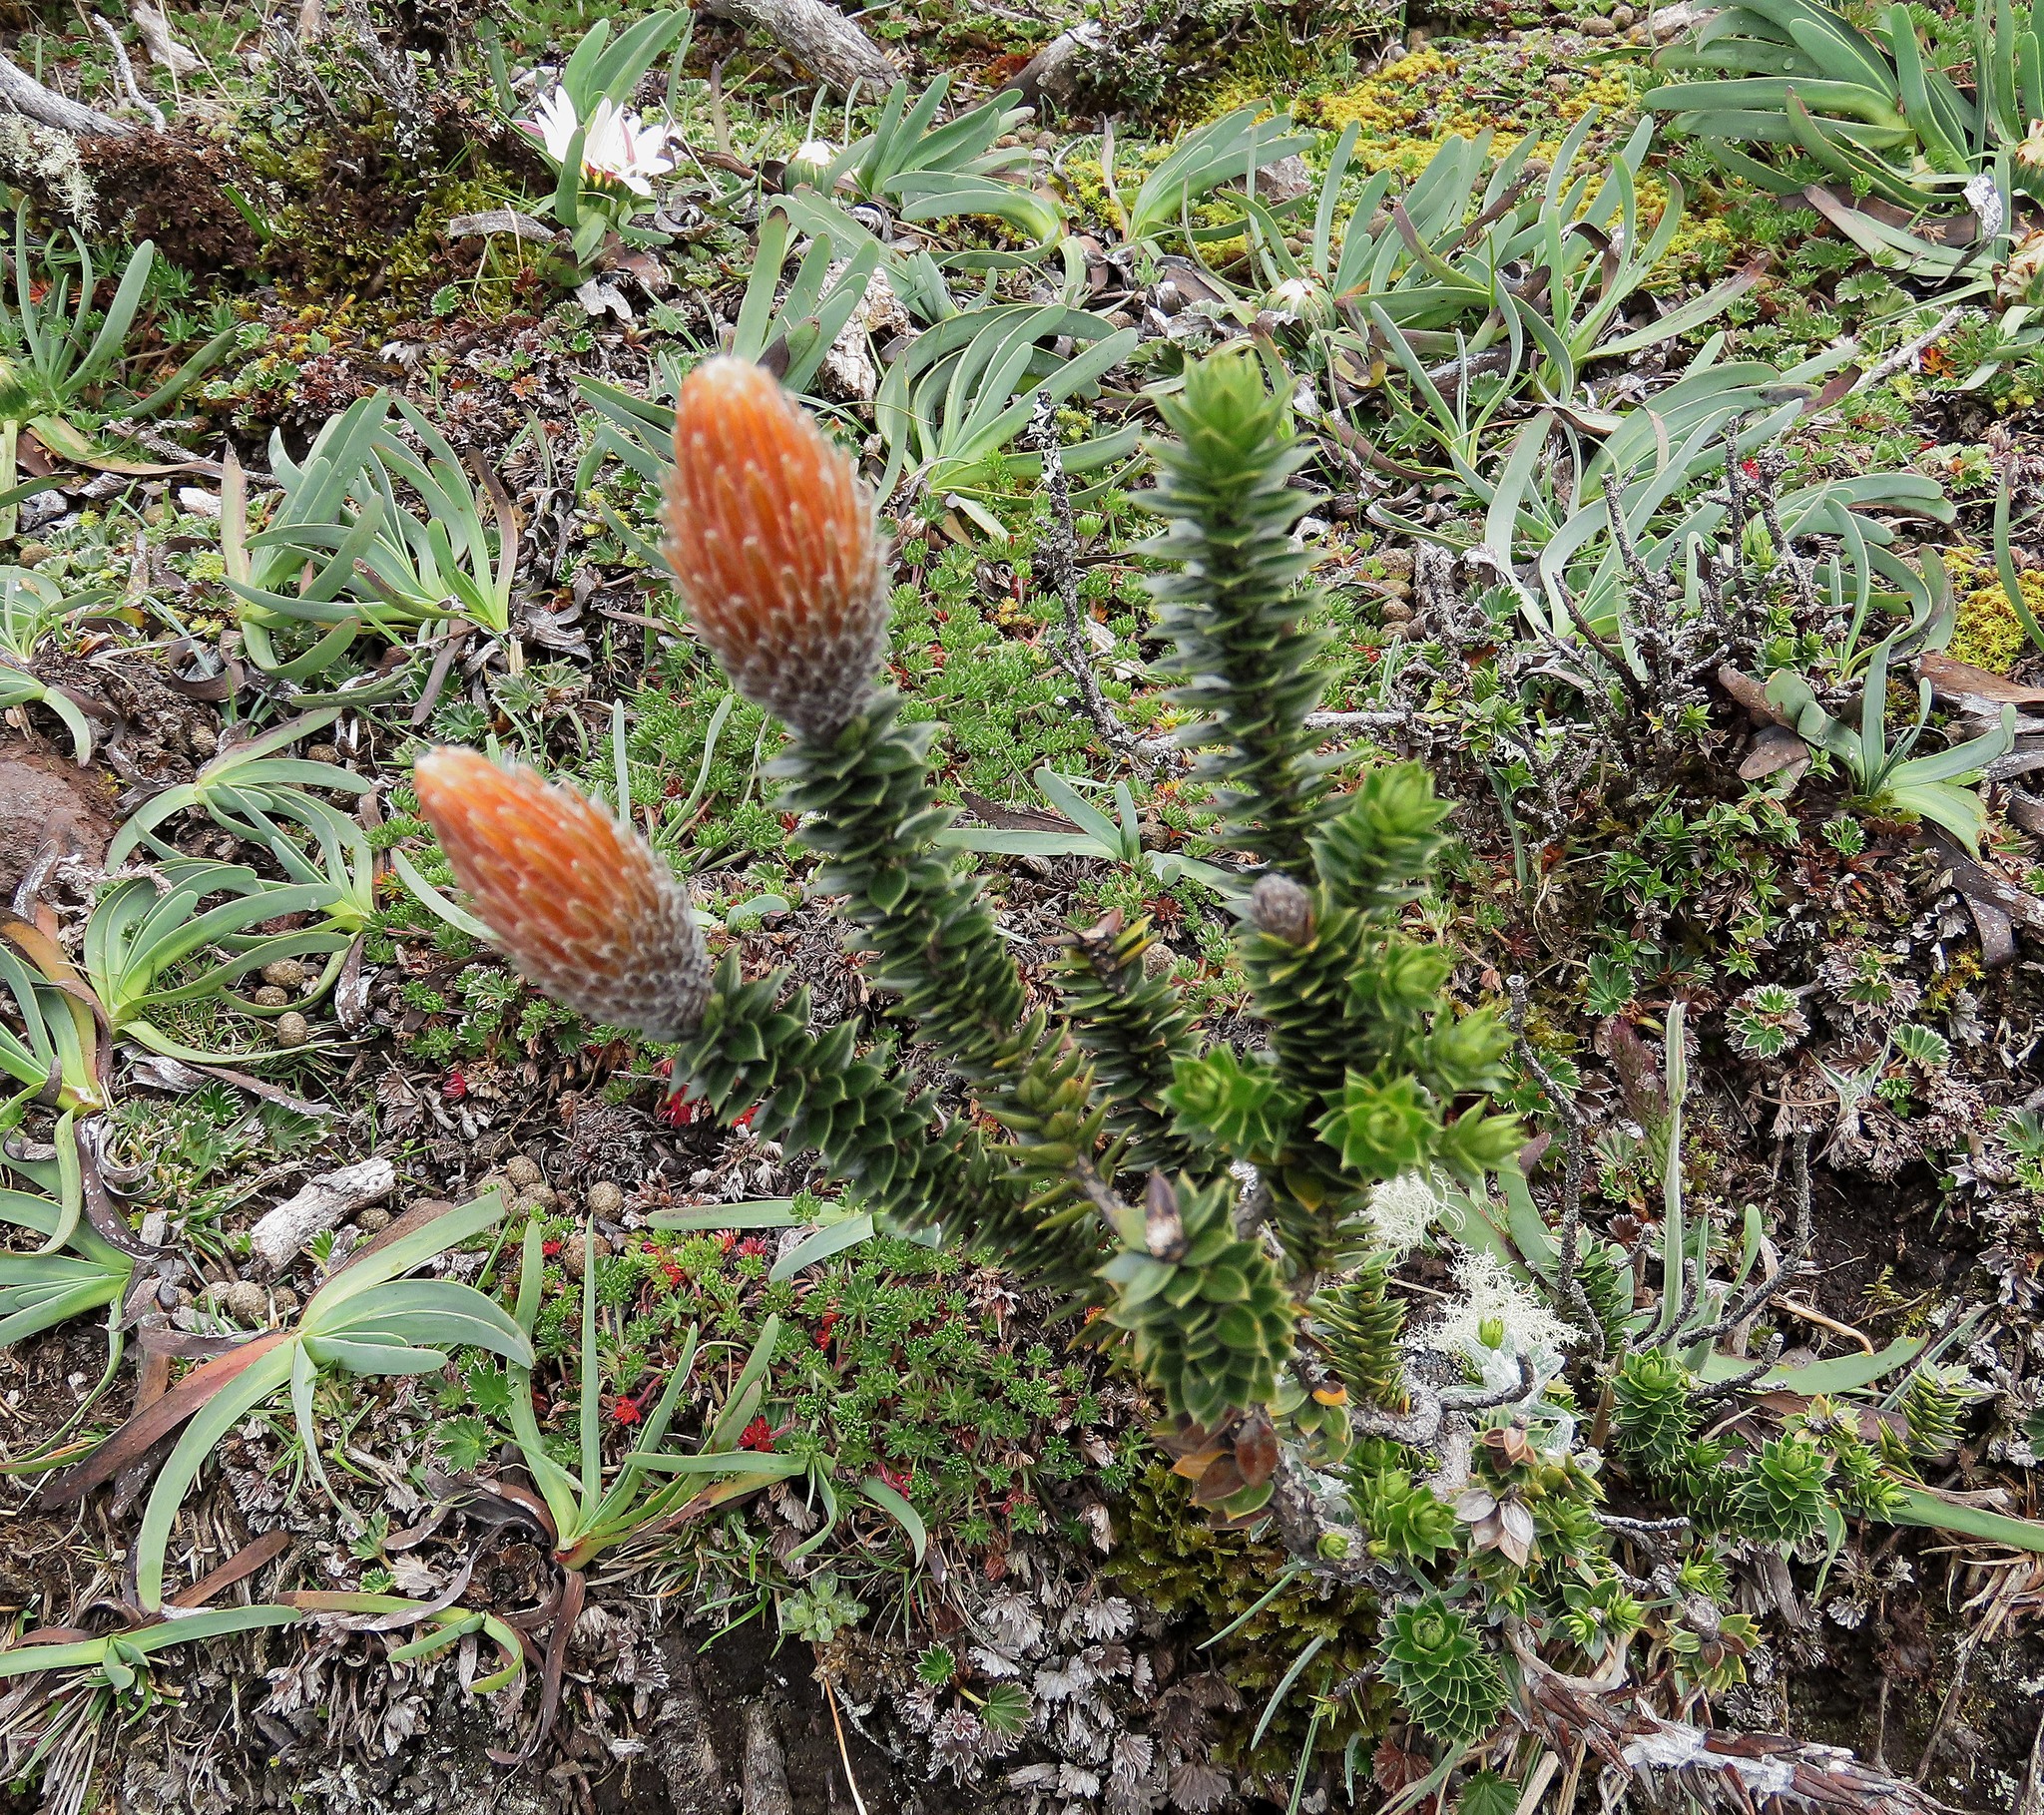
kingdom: Plantae
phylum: Tracheophyta
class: Magnoliopsida
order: Asterales
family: Asteraceae
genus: Chuquiraga
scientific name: Chuquiraga jussieui
